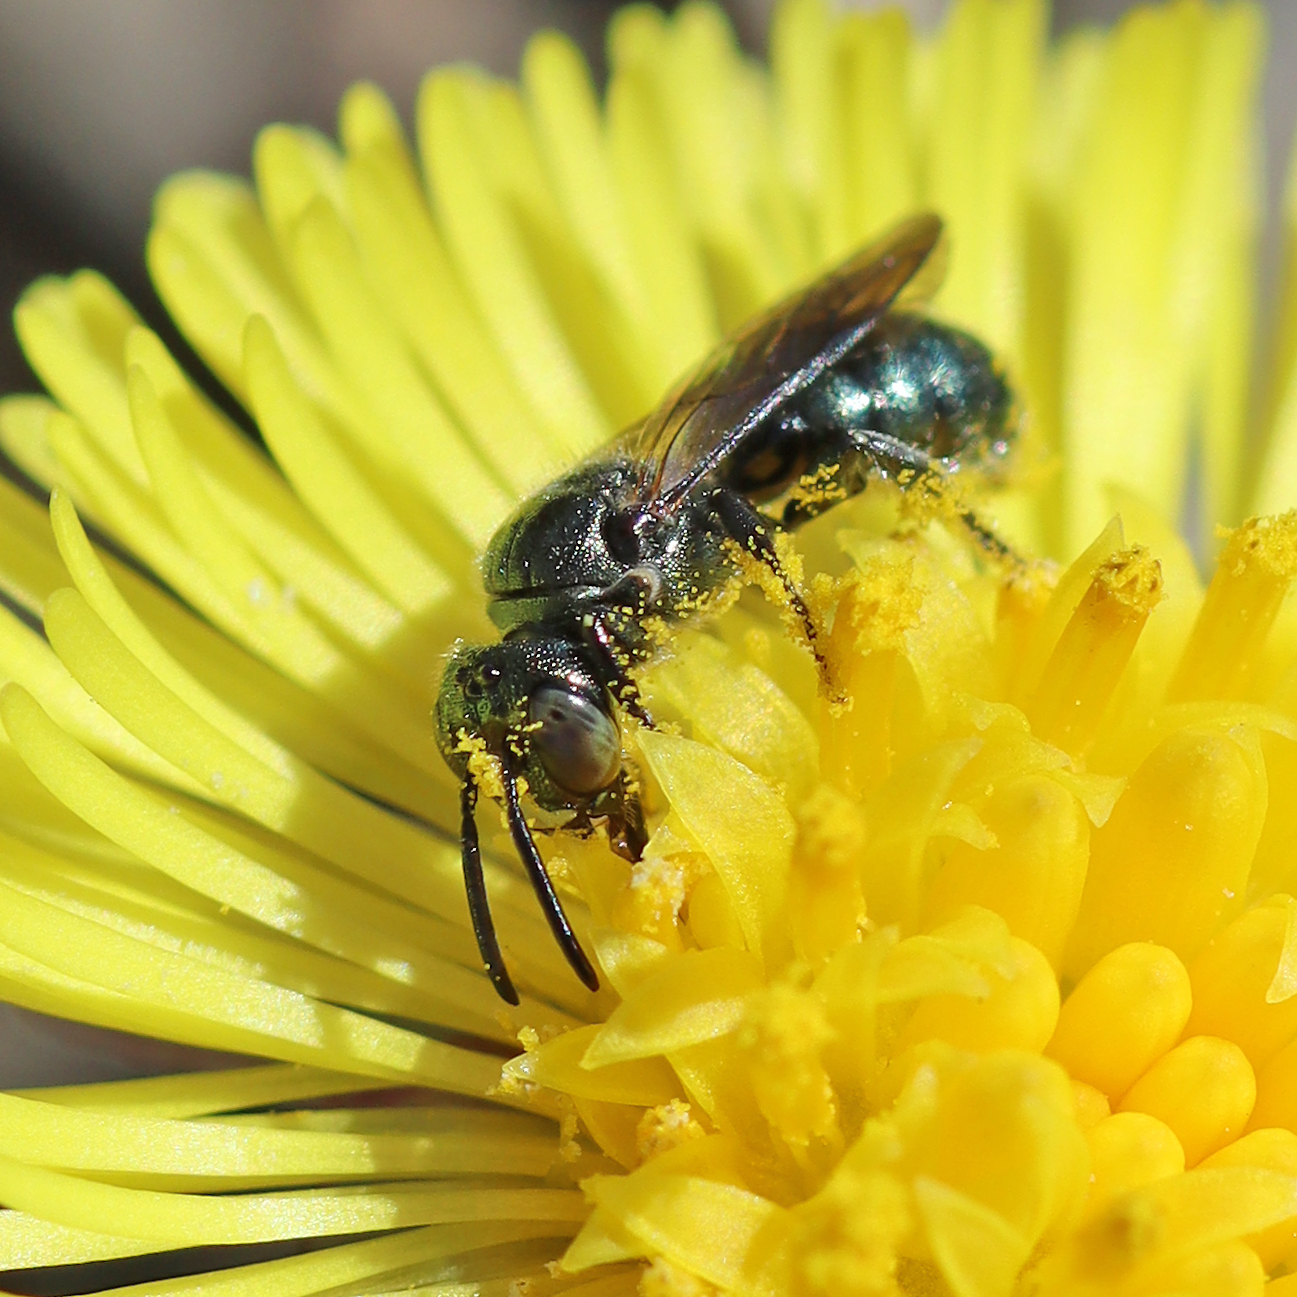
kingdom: Animalia
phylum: Arthropoda
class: Insecta
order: Hymenoptera
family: Apidae
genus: Ceratina
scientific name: Ceratina calcarata
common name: Spurred carpenter bee
